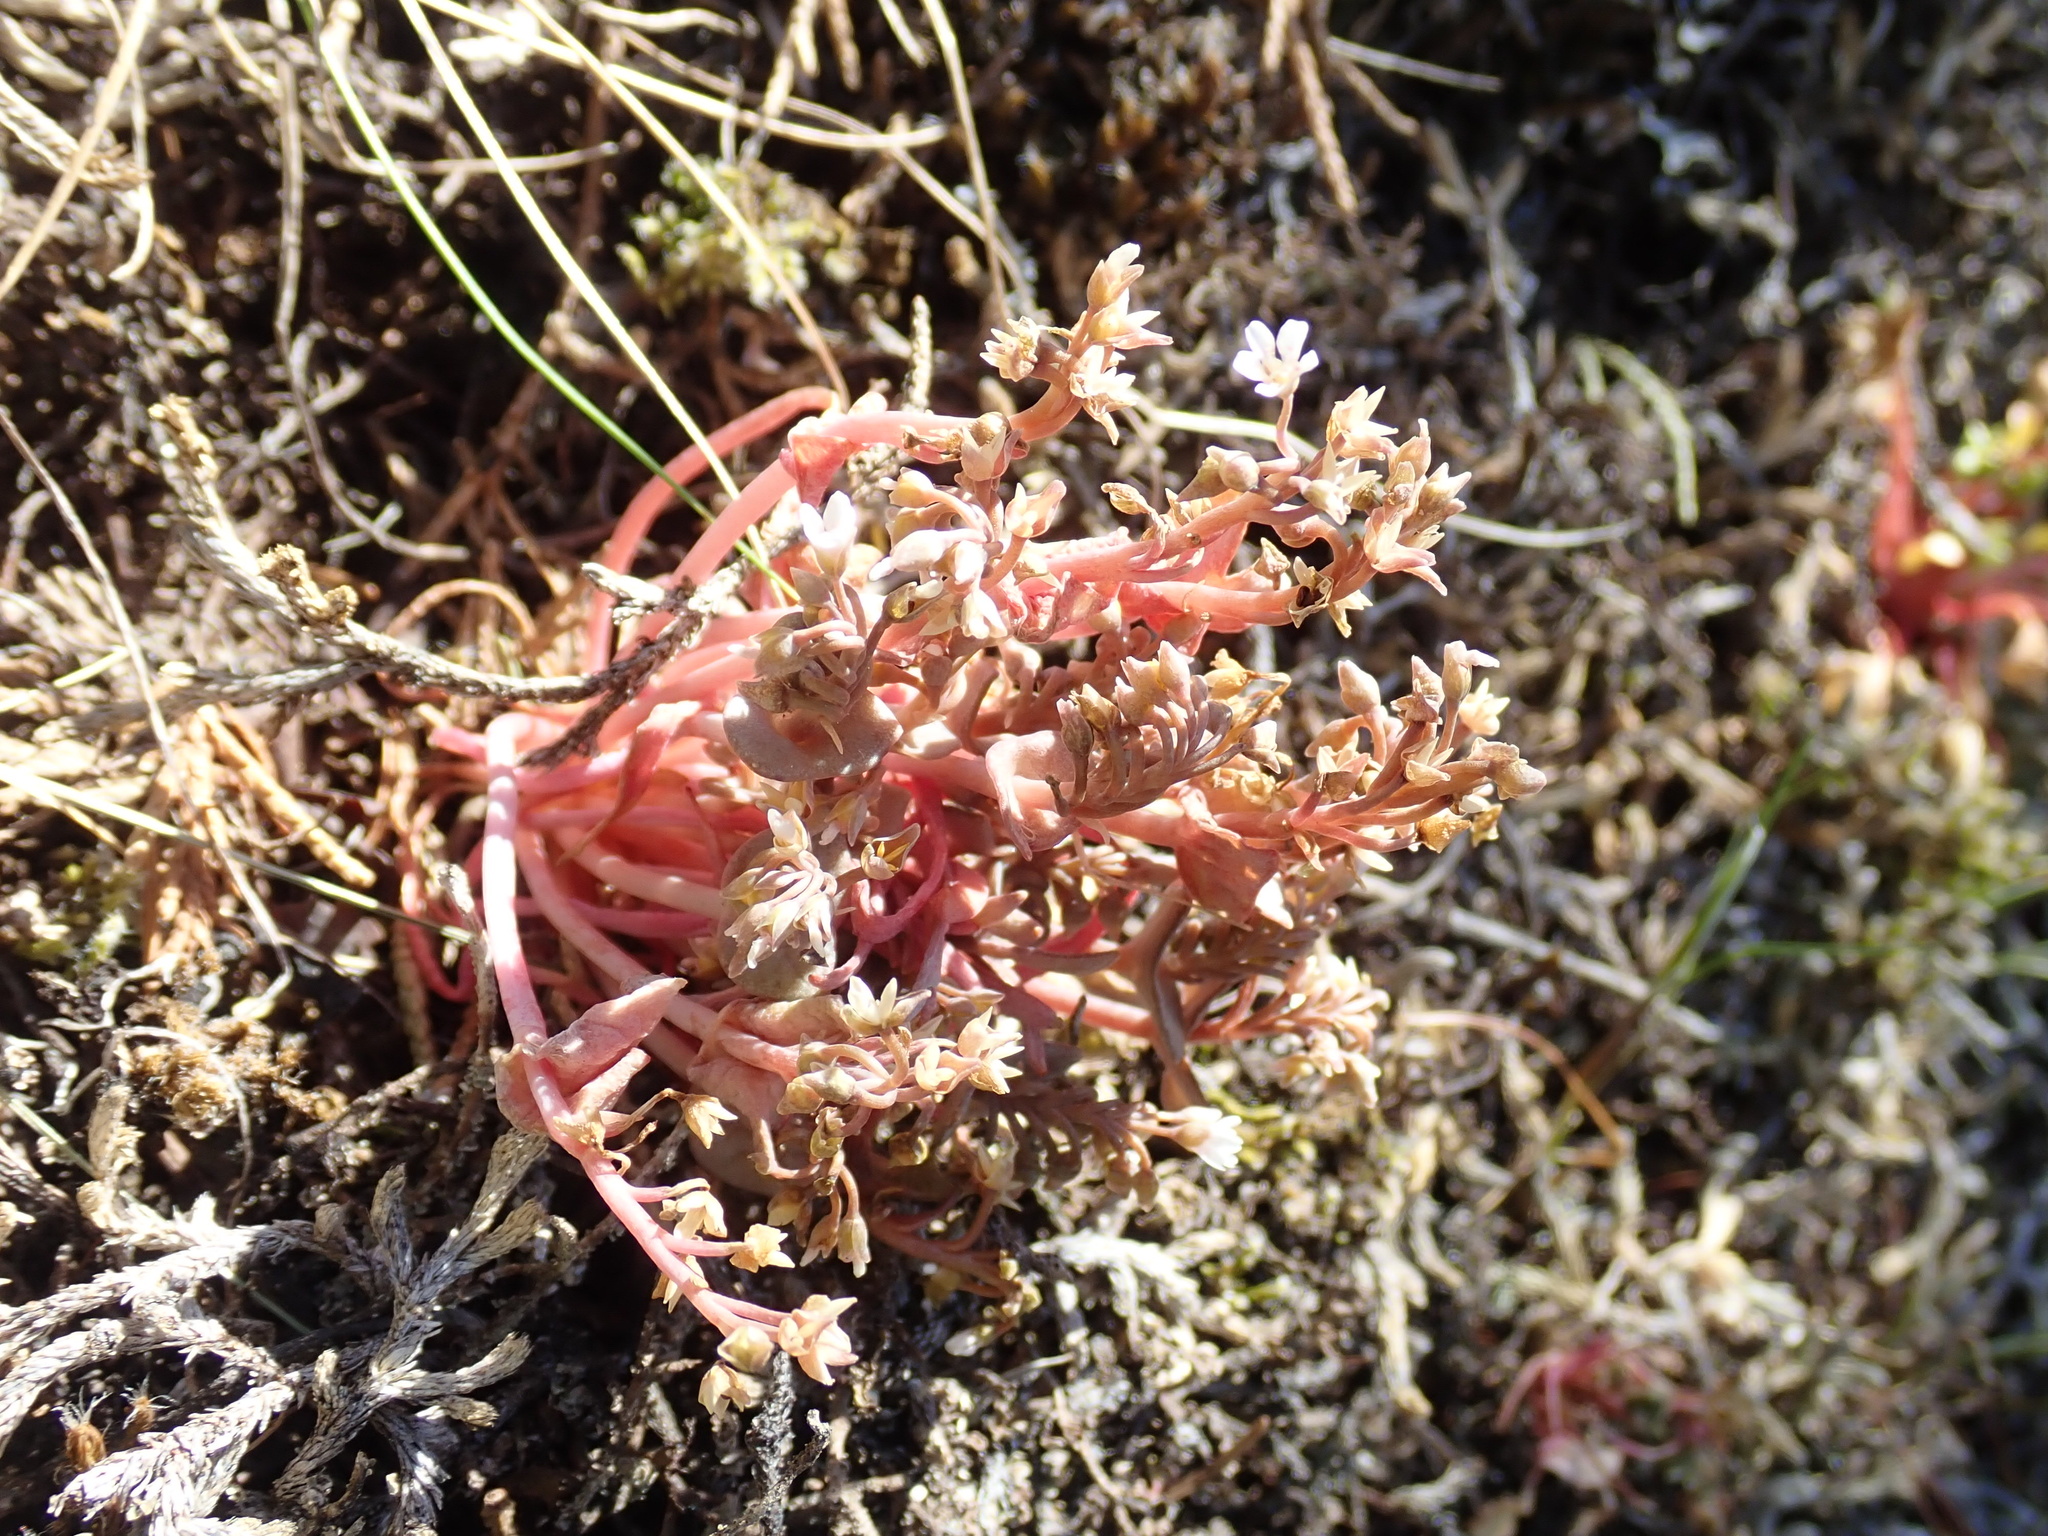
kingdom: Plantae
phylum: Tracheophyta
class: Magnoliopsida
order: Caryophyllales
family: Montiaceae
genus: Claytonia
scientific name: Claytonia exigua
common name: Pale spring beauty
